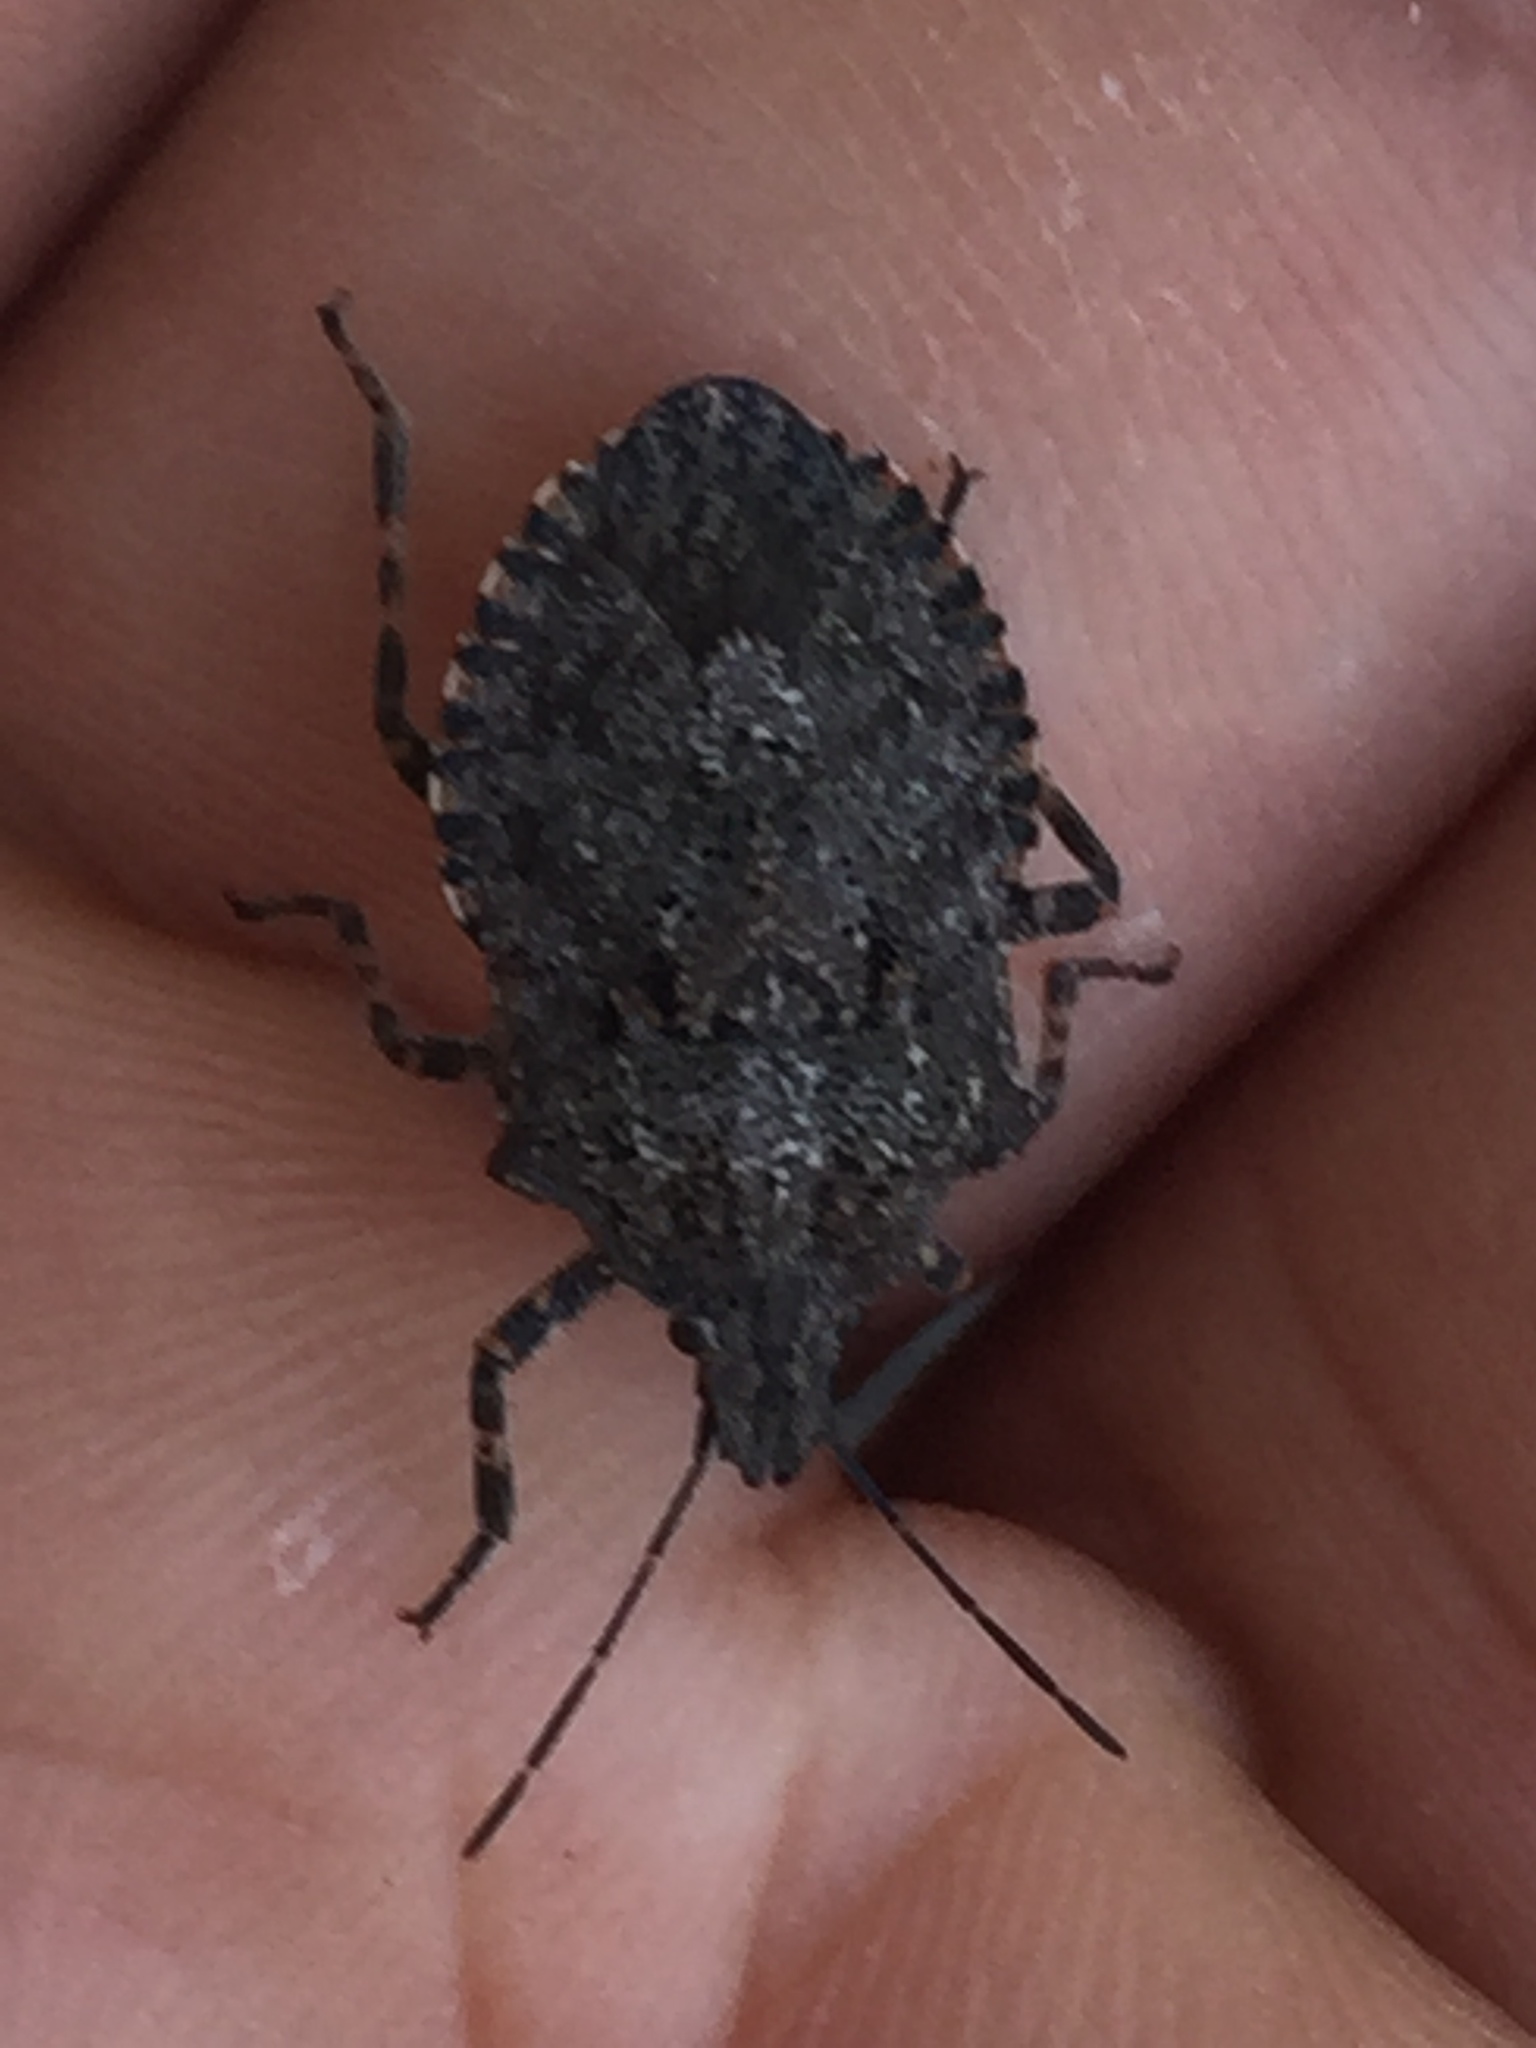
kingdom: Animalia
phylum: Arthropoda
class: Insecta
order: Hemiptera
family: Pentatomidae
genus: Brochymena
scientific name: Brochymena quadripustulata
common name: Four-humped stink bug
